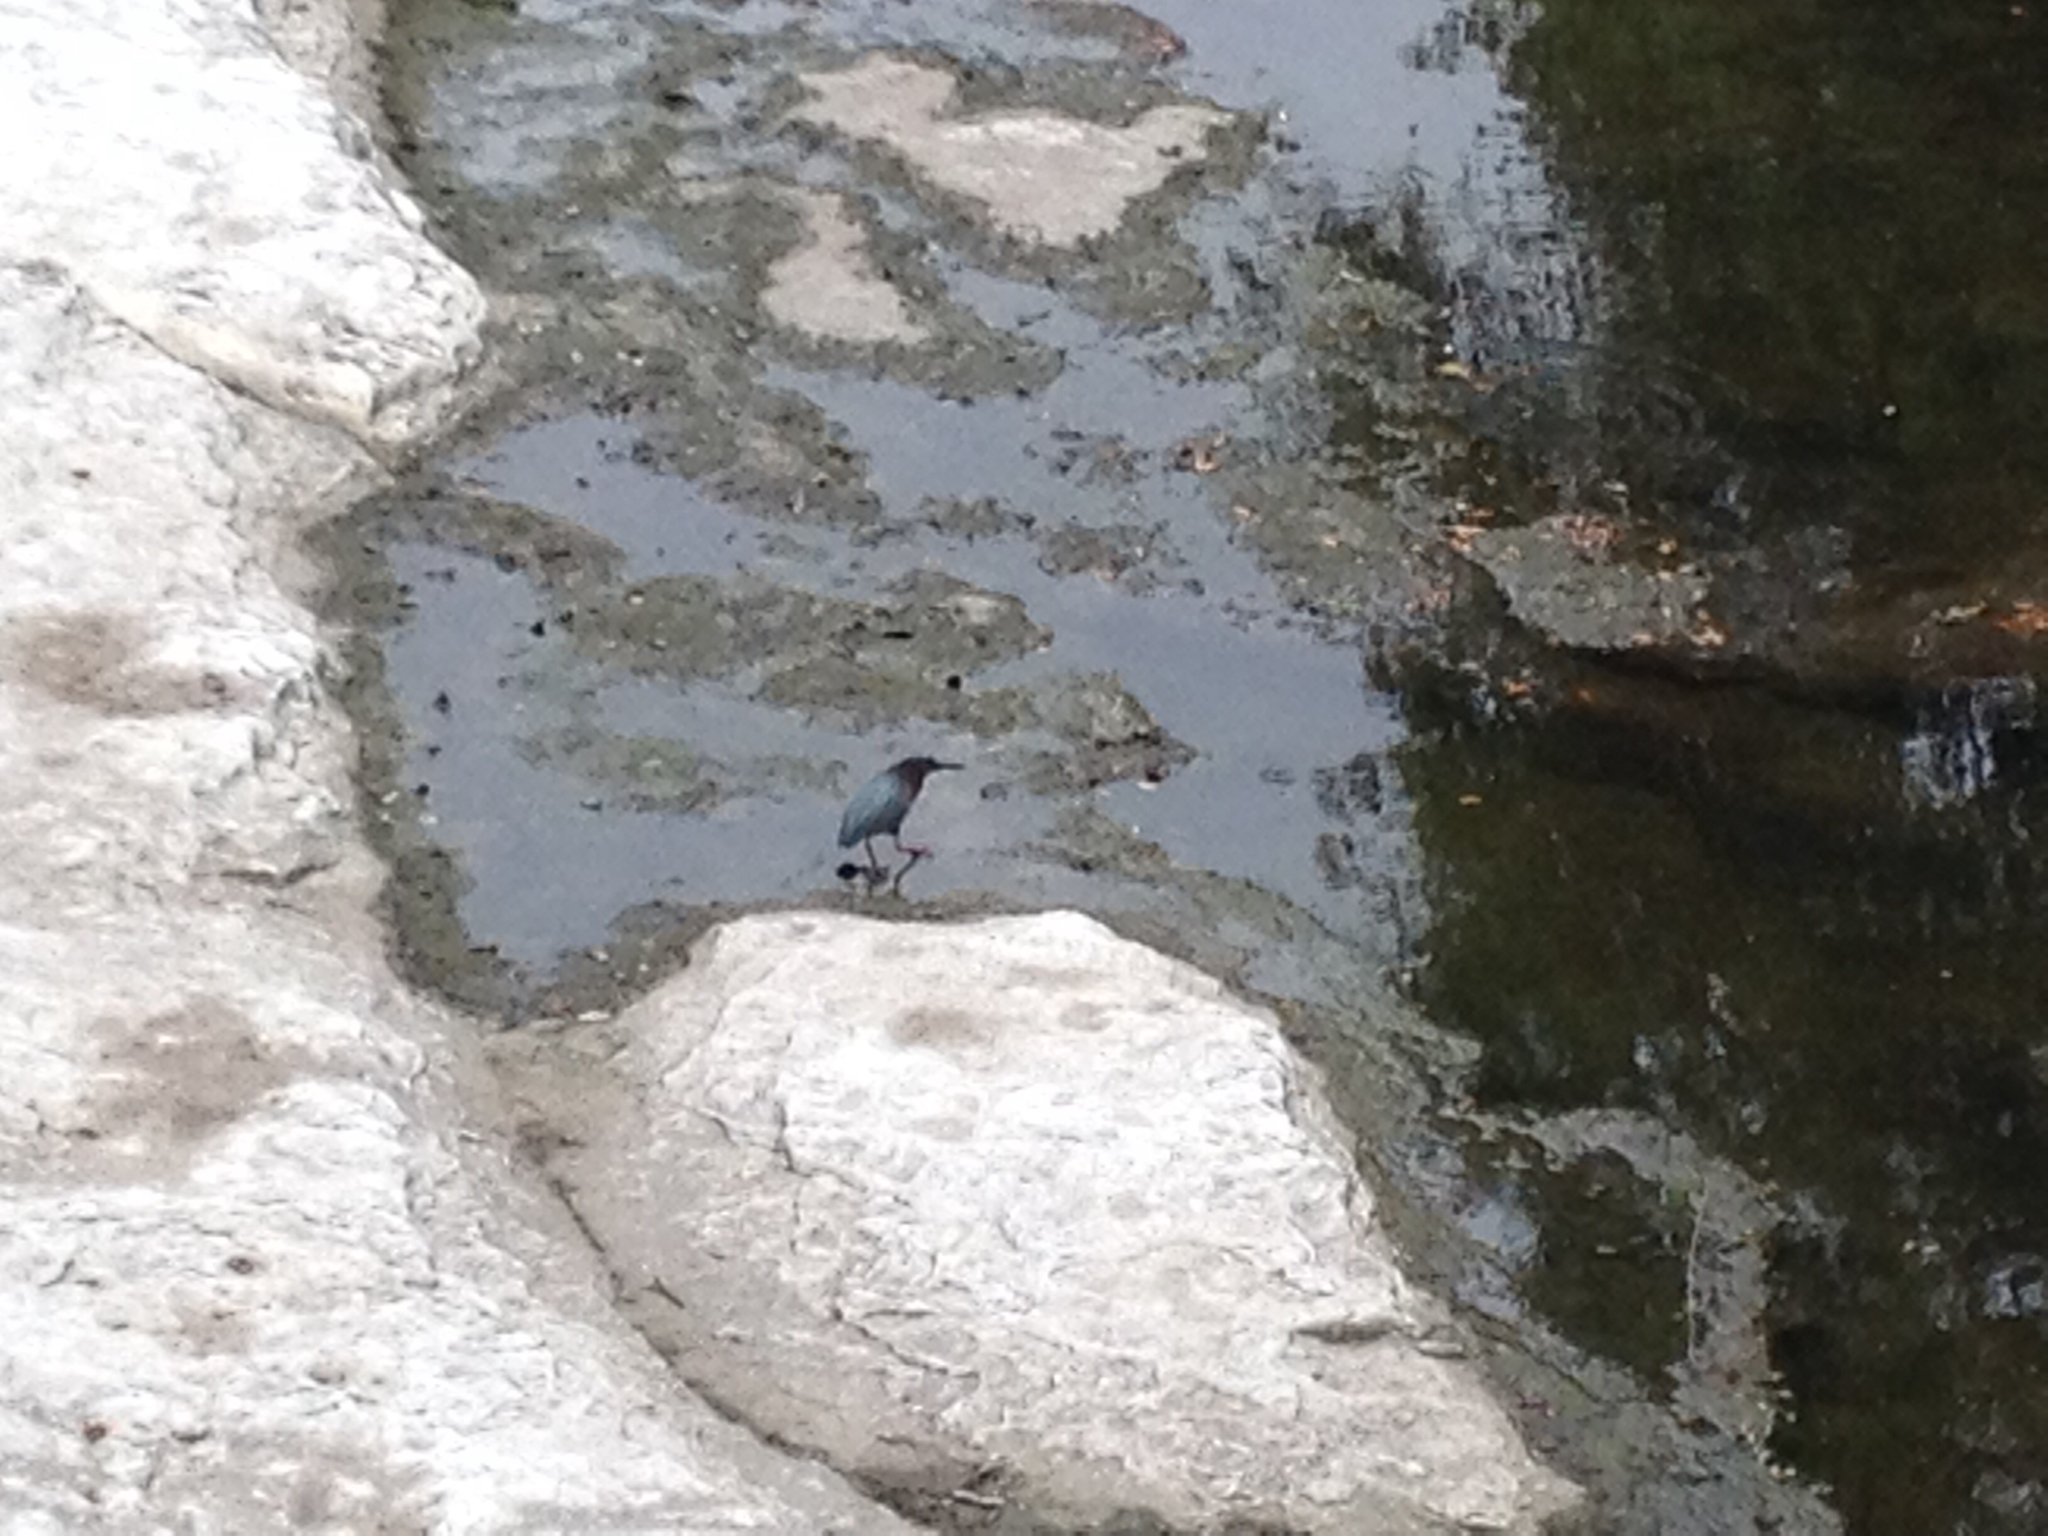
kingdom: Animalia
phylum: Chordata
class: Aves
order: Pelecaniformes
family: Ardeidae
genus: Butorides
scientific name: Butorides virescens
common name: Green heron
